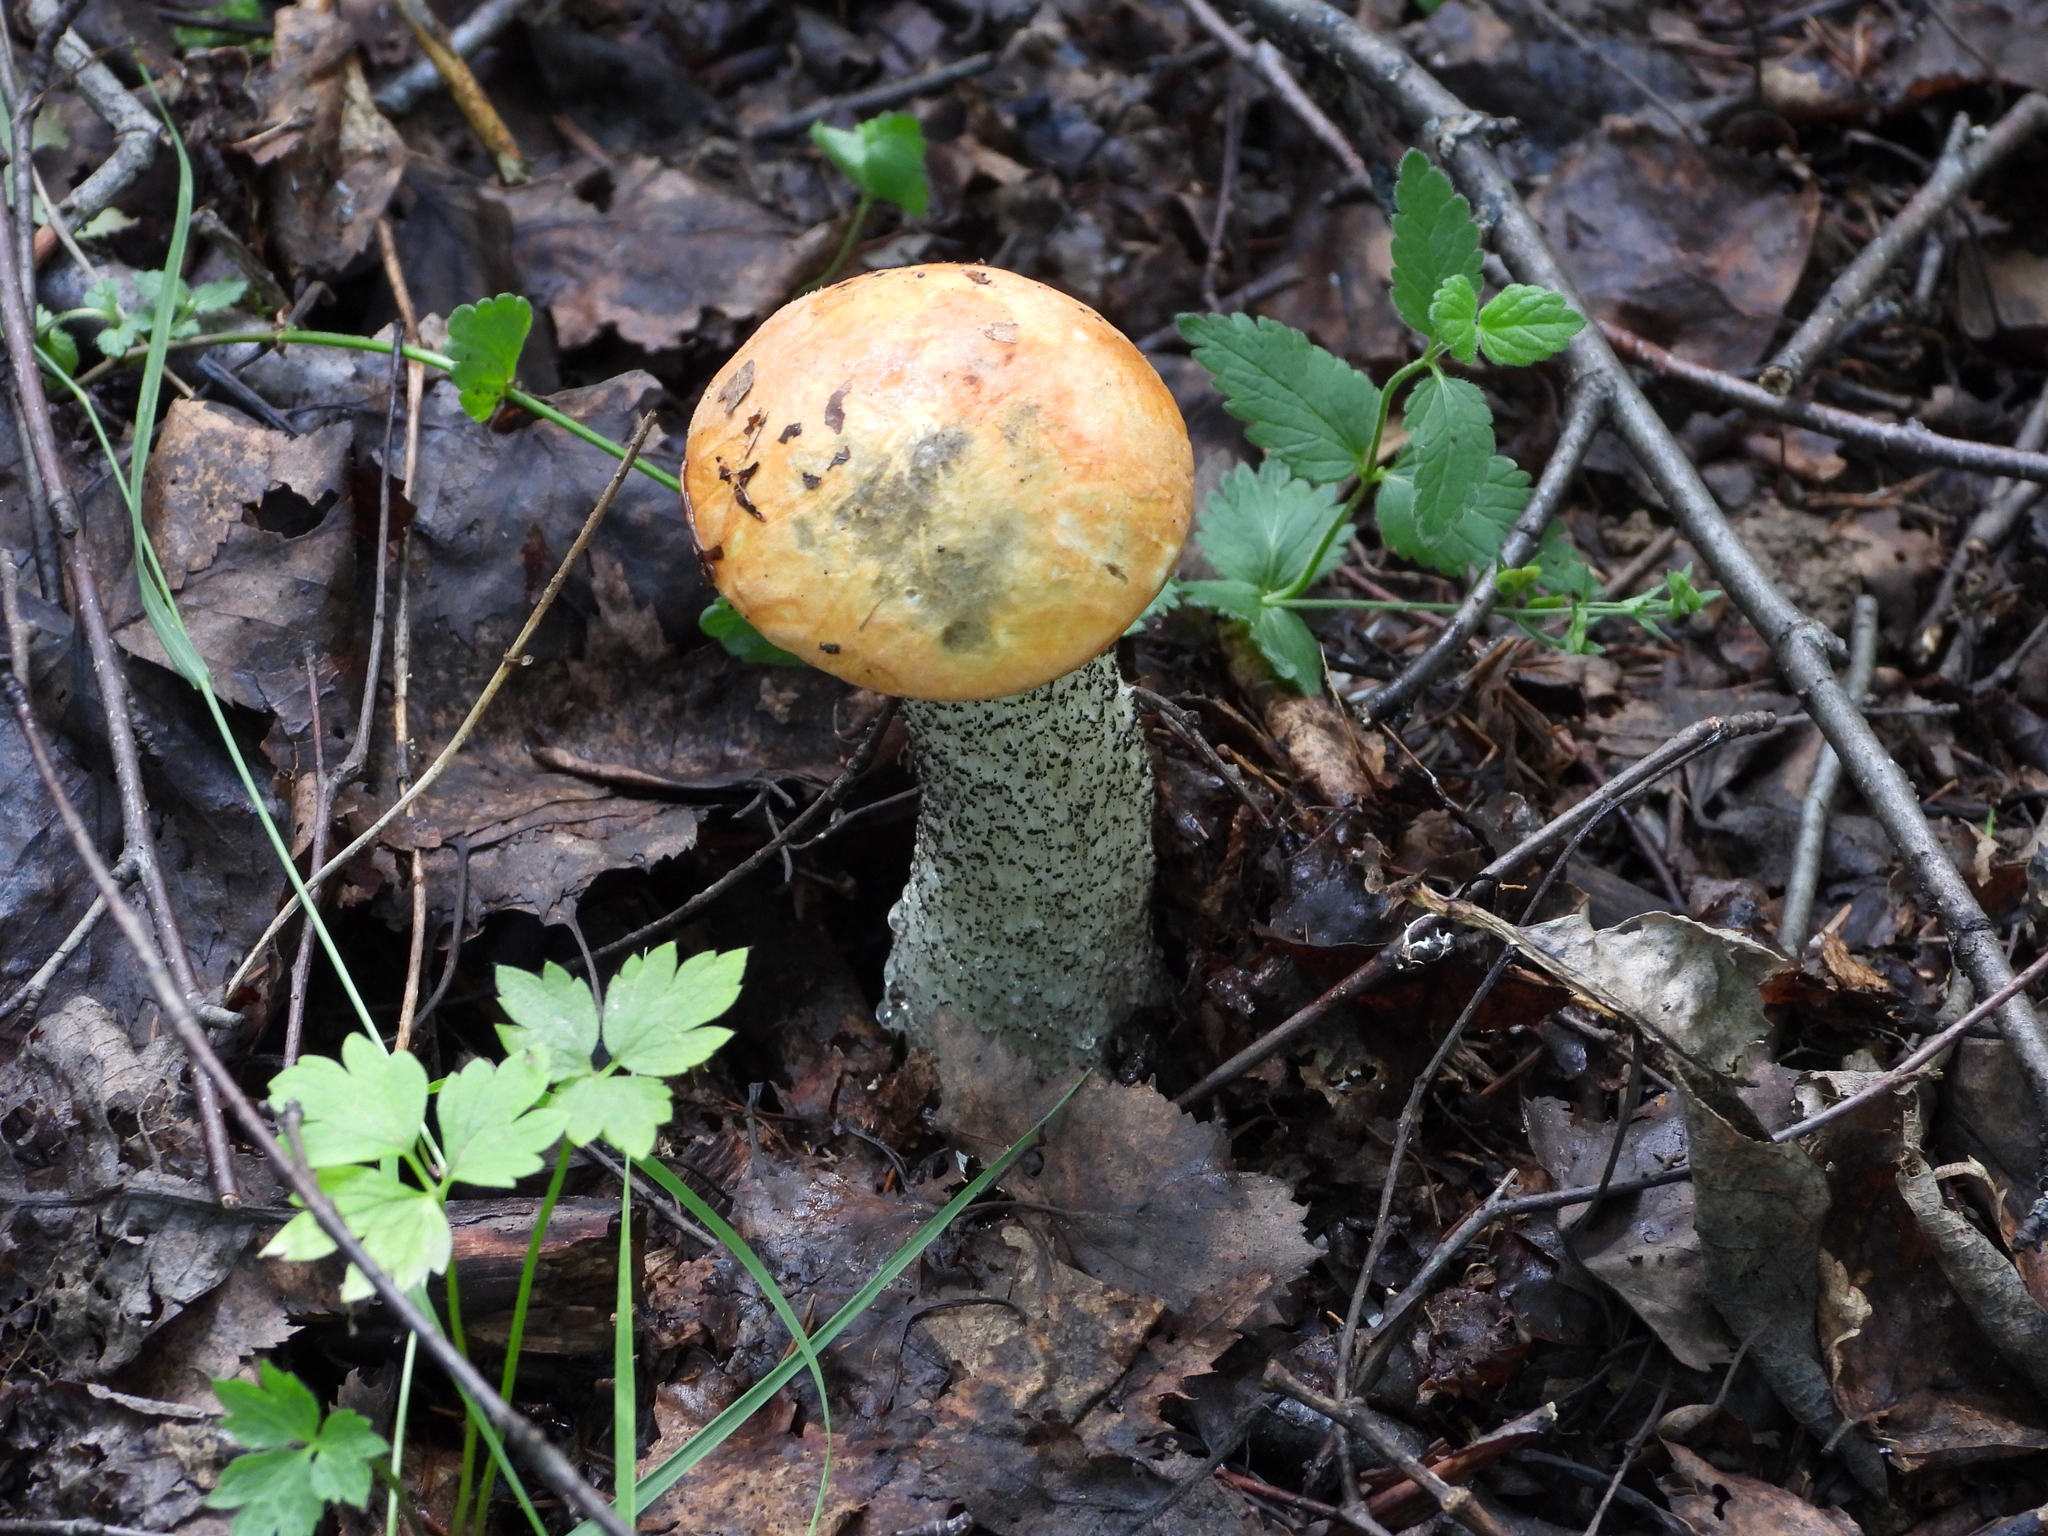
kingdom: Fungi
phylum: Basidiomycota
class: Agaricomycetes
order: Boletales
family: Boletaceae
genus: Leccinum
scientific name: Leccinum versipelle
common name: Orange birch bolete
